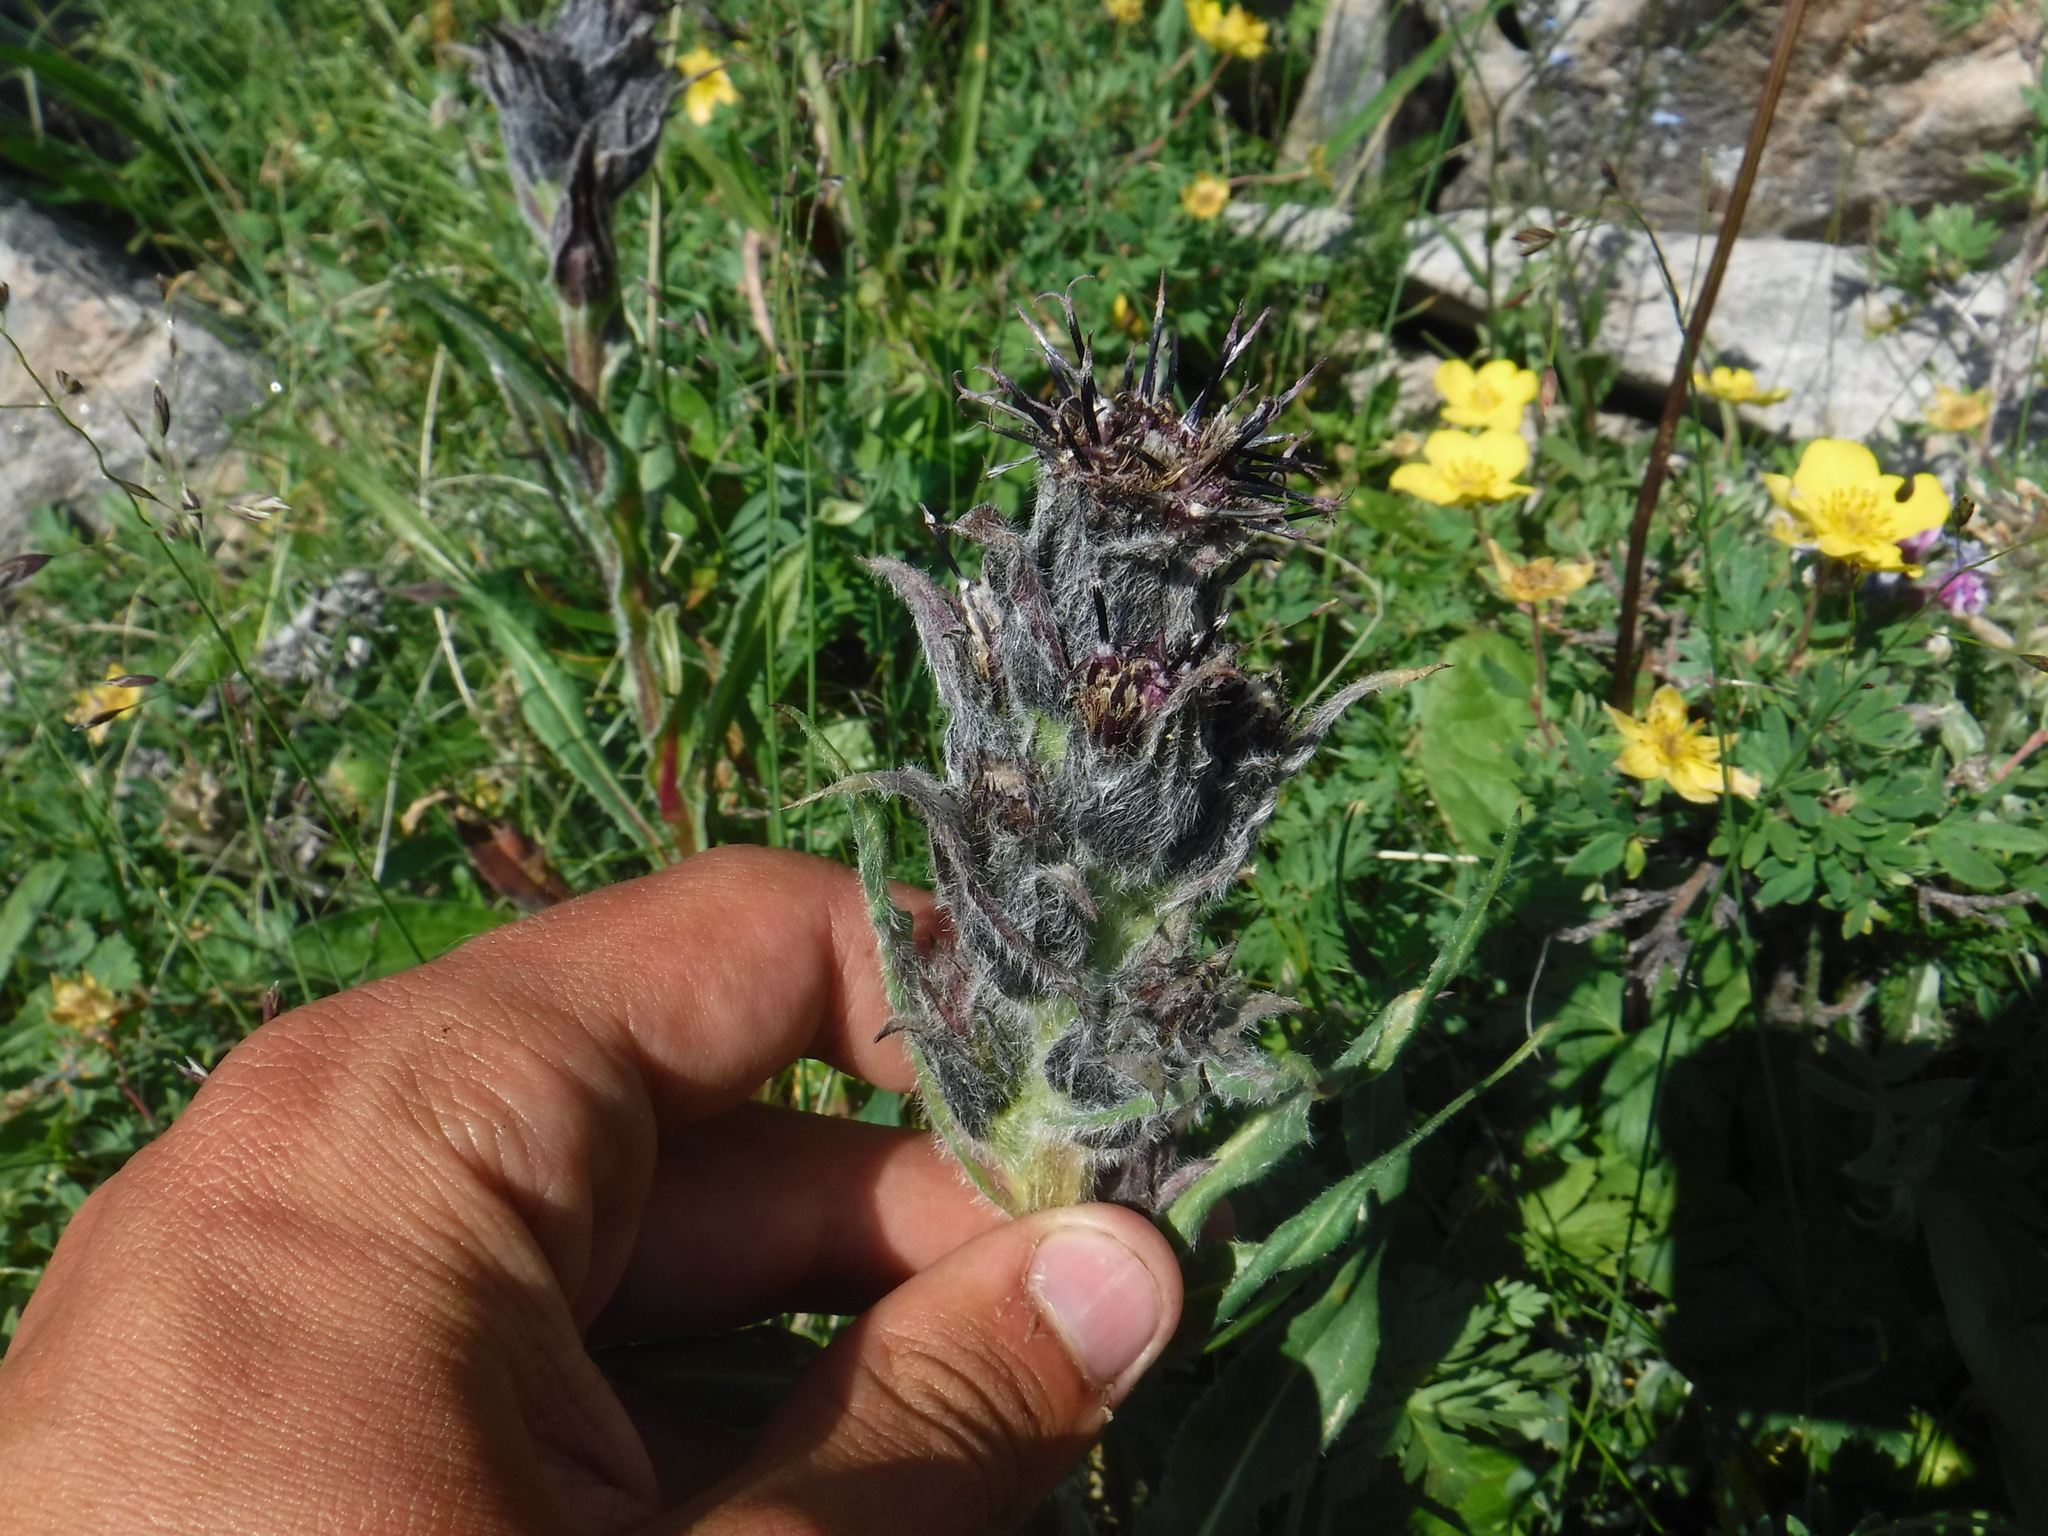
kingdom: Plantae
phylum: Tracheophyta
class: Magnoliopsida
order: Asterales
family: Asteraceae
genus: Saussurea
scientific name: Saussurea baicalensis
